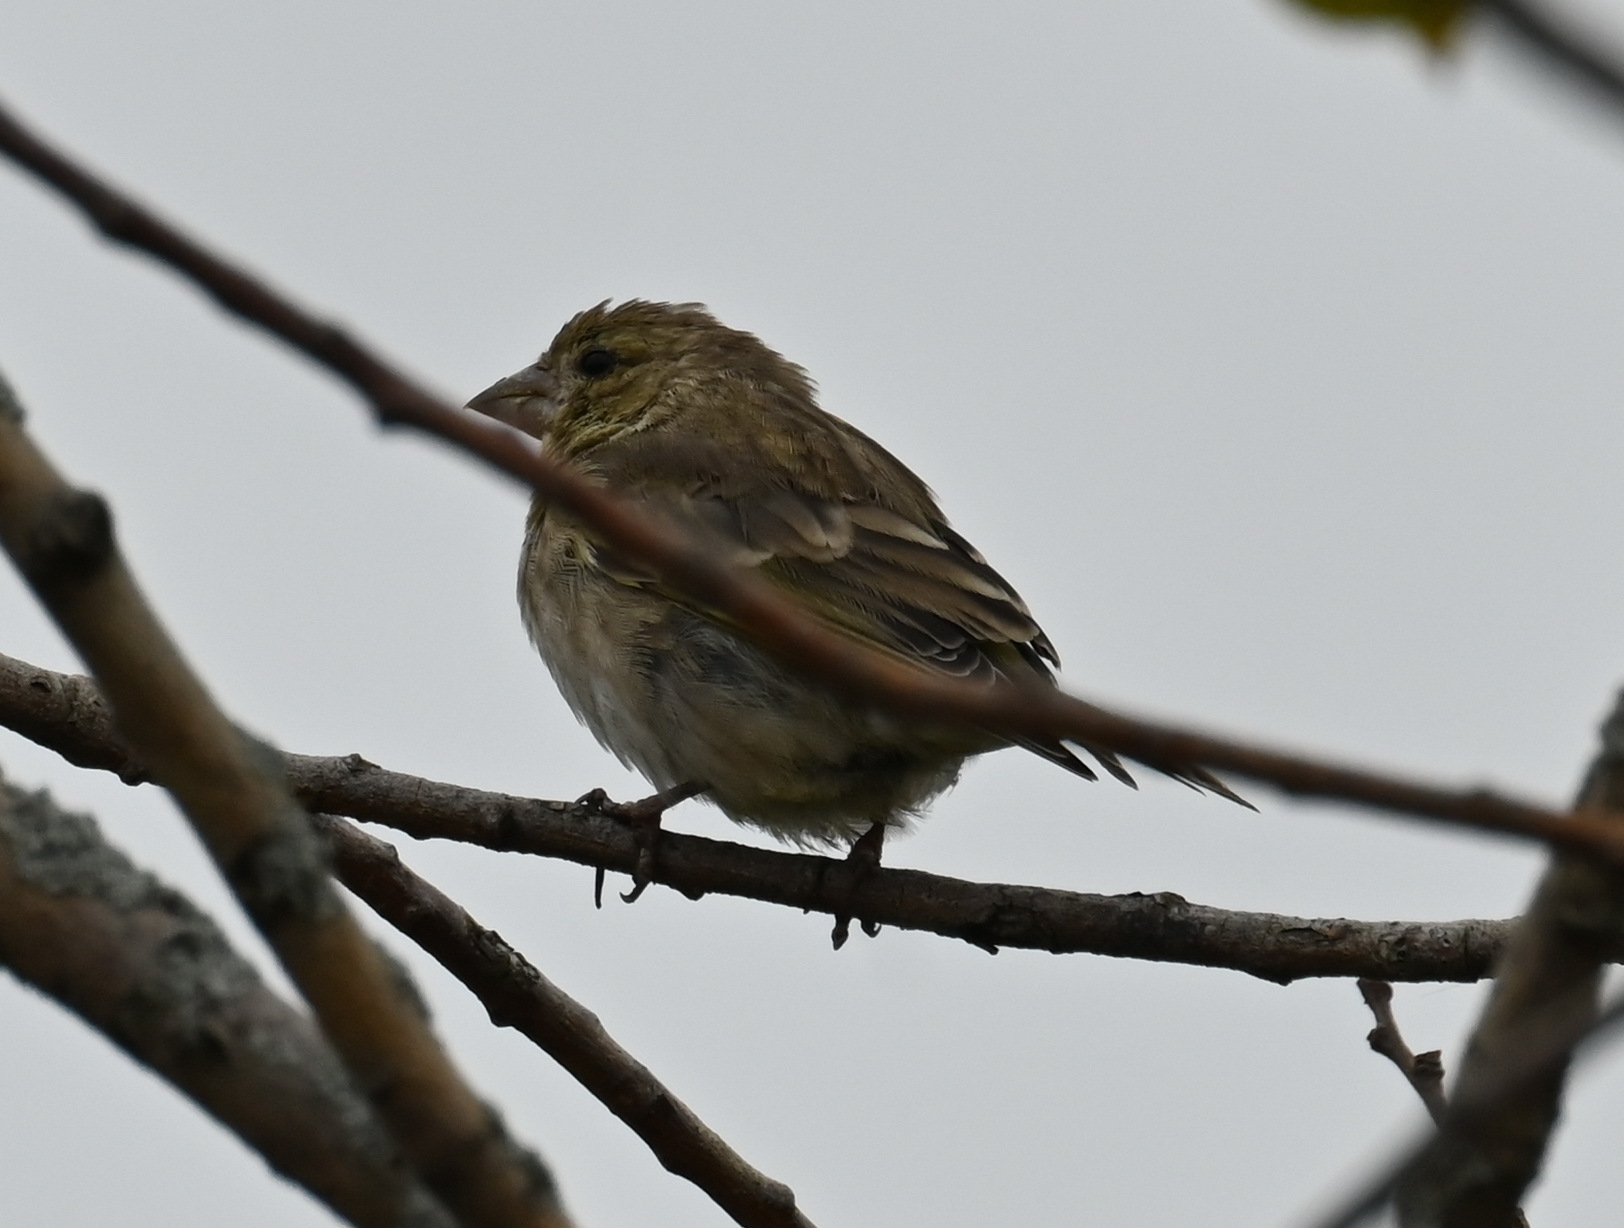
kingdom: Plantae
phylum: Tracheophyta
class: Liliopsida
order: Poales
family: Poaceae
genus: Chloris
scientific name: Chloris chloris
